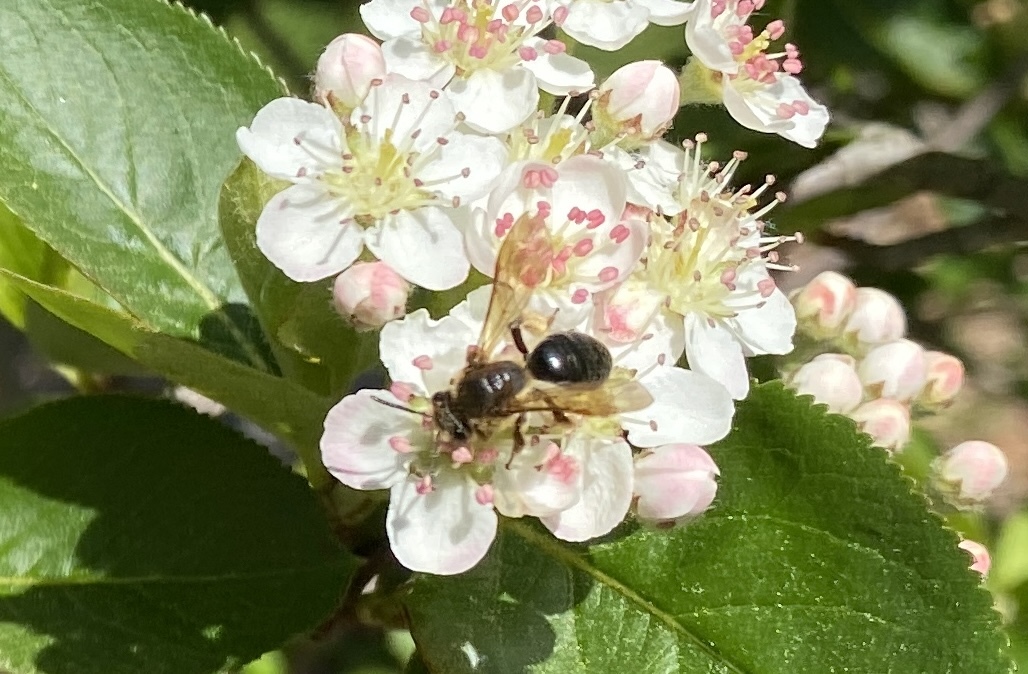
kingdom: Animalia
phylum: Arthropoda
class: Insecta
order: Hymenoptera
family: Andrenidae
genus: Andrena
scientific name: Andrena crataegi
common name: Hawthorn mining bee
